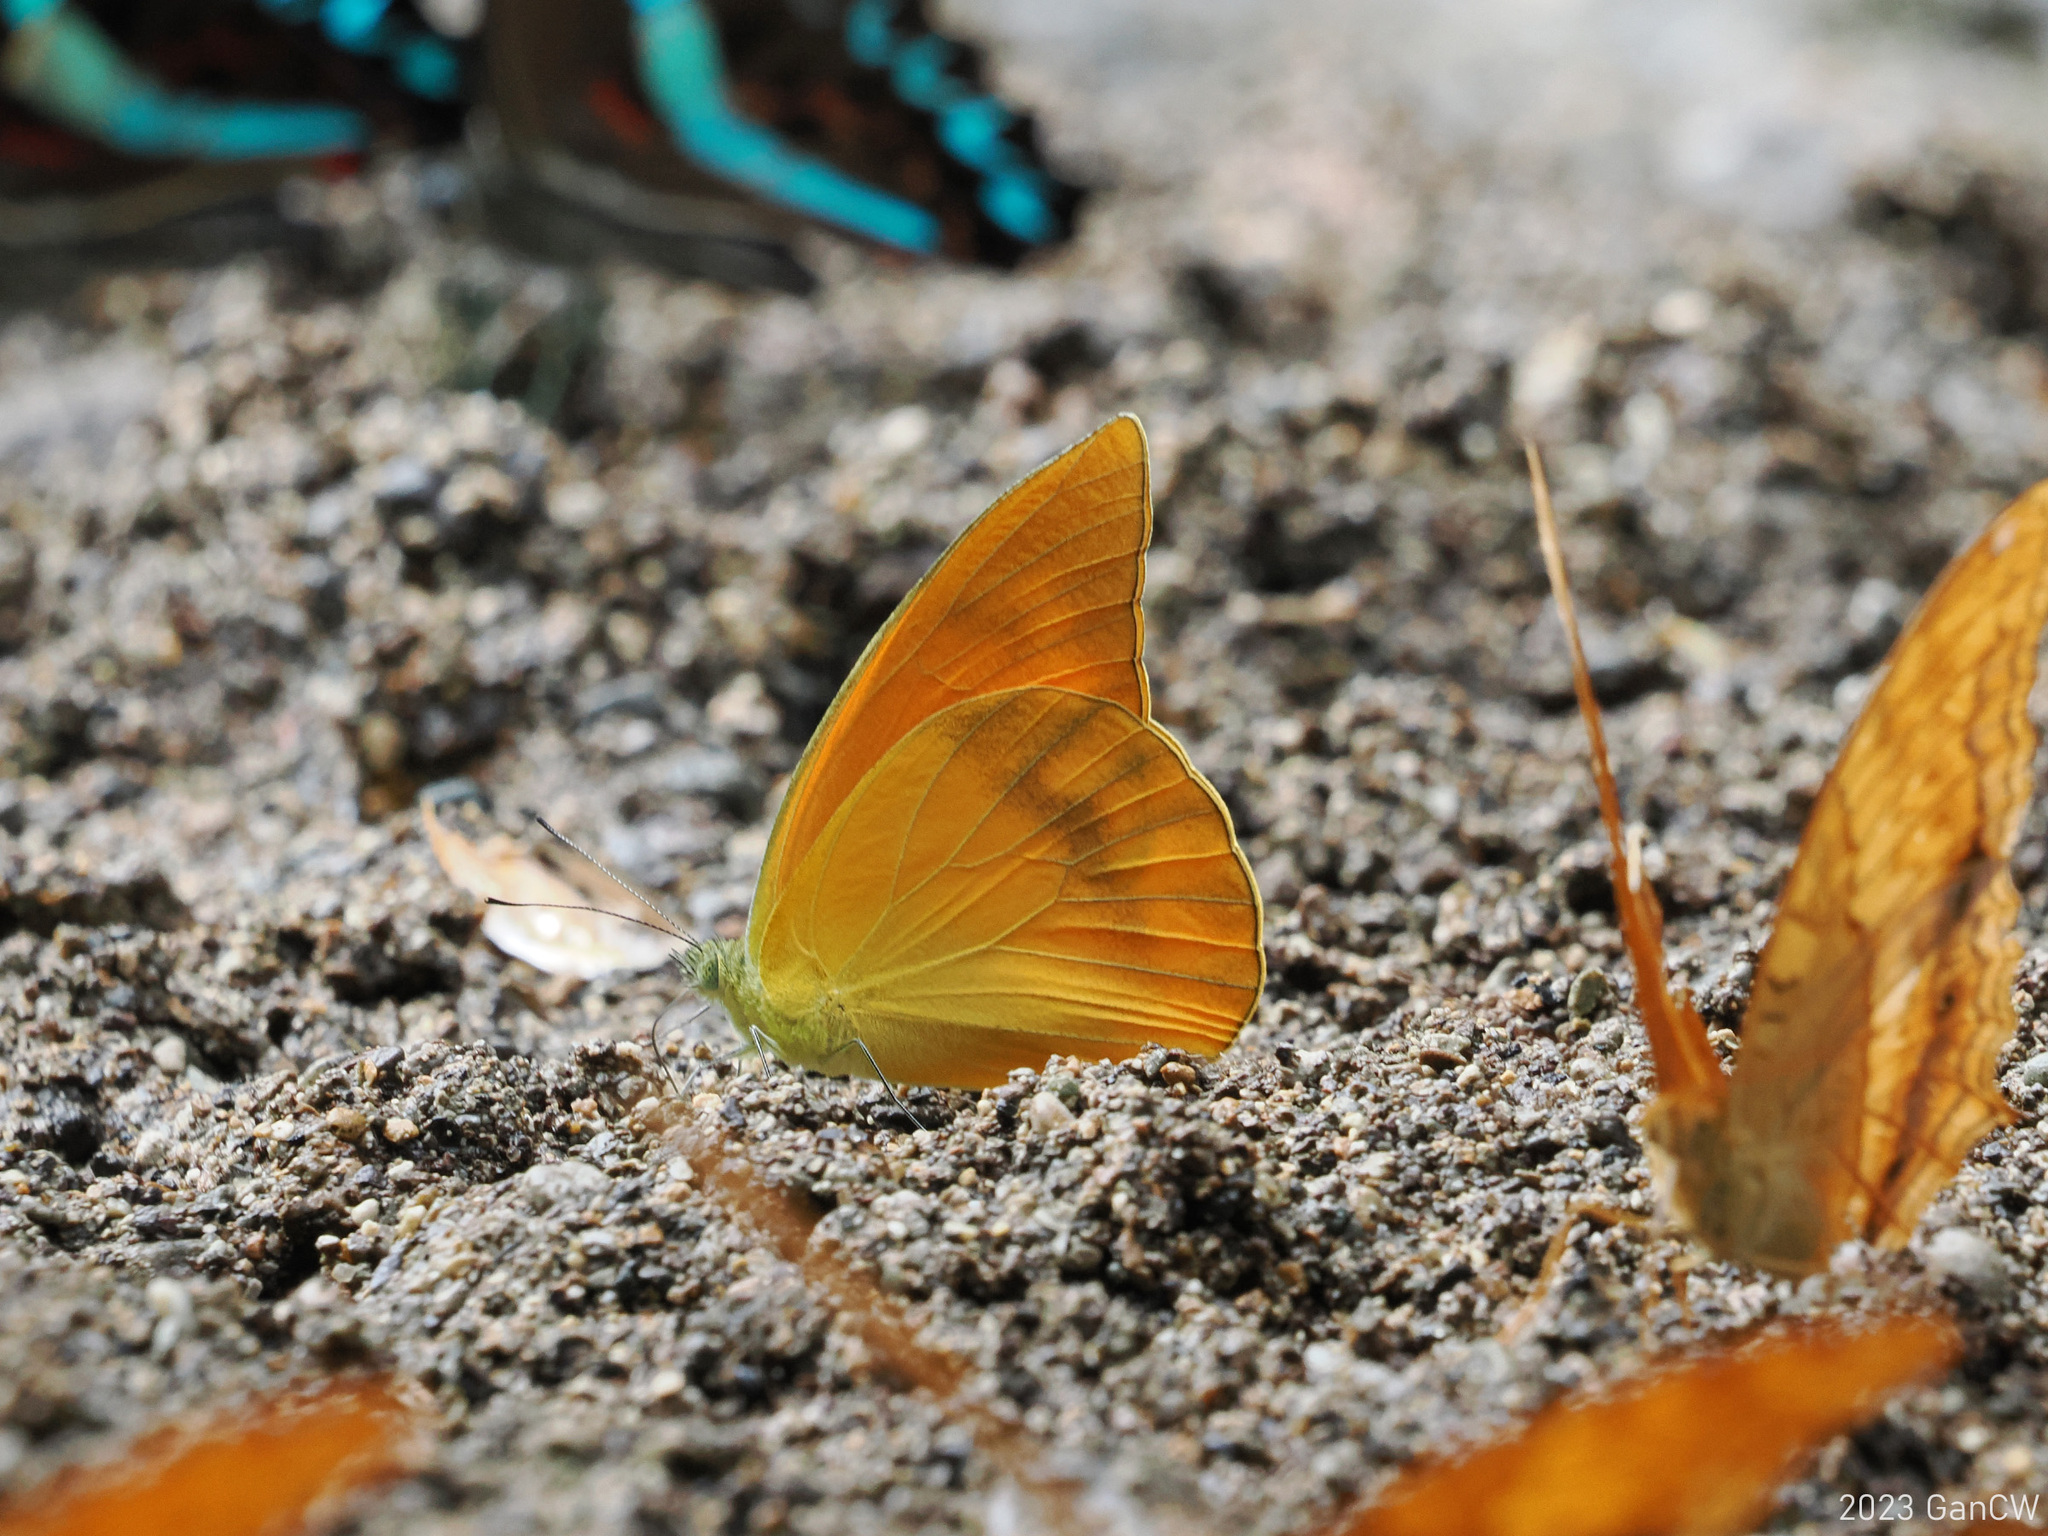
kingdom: Animalia
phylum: Arthropoda
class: Insecta
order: Lepidoptera
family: Pieridae
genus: Appias
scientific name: Appias zarinda
